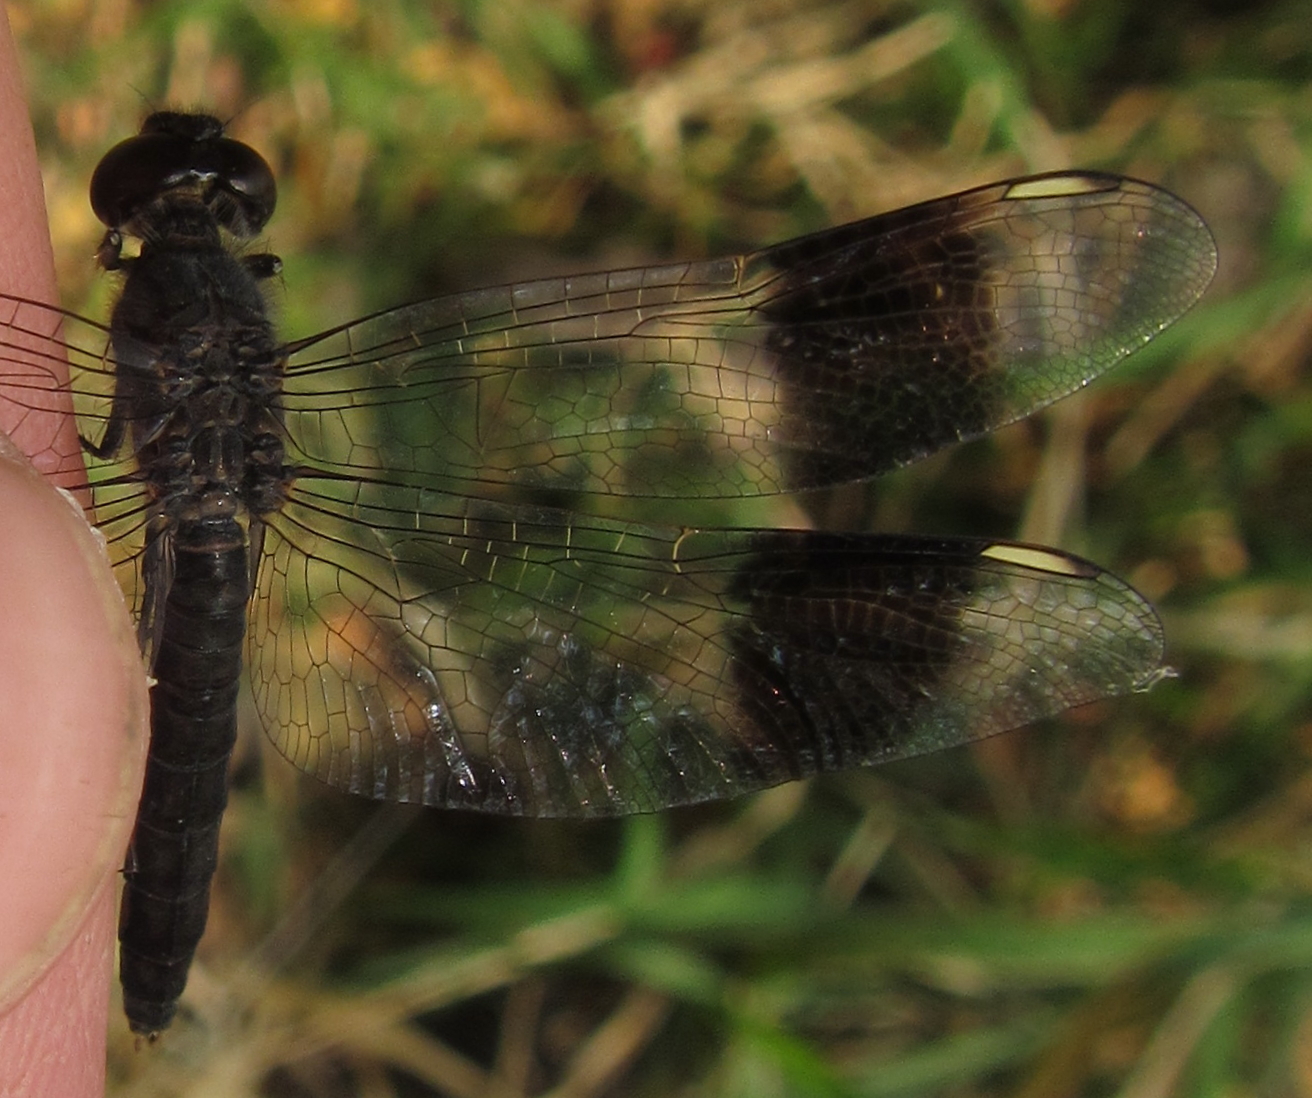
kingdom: Animalia
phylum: Arthropoda
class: Insecta
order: Odonata
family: Libellulidae
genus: Brachythemis
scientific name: Brachythemis leucosticta
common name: Banded groundling
